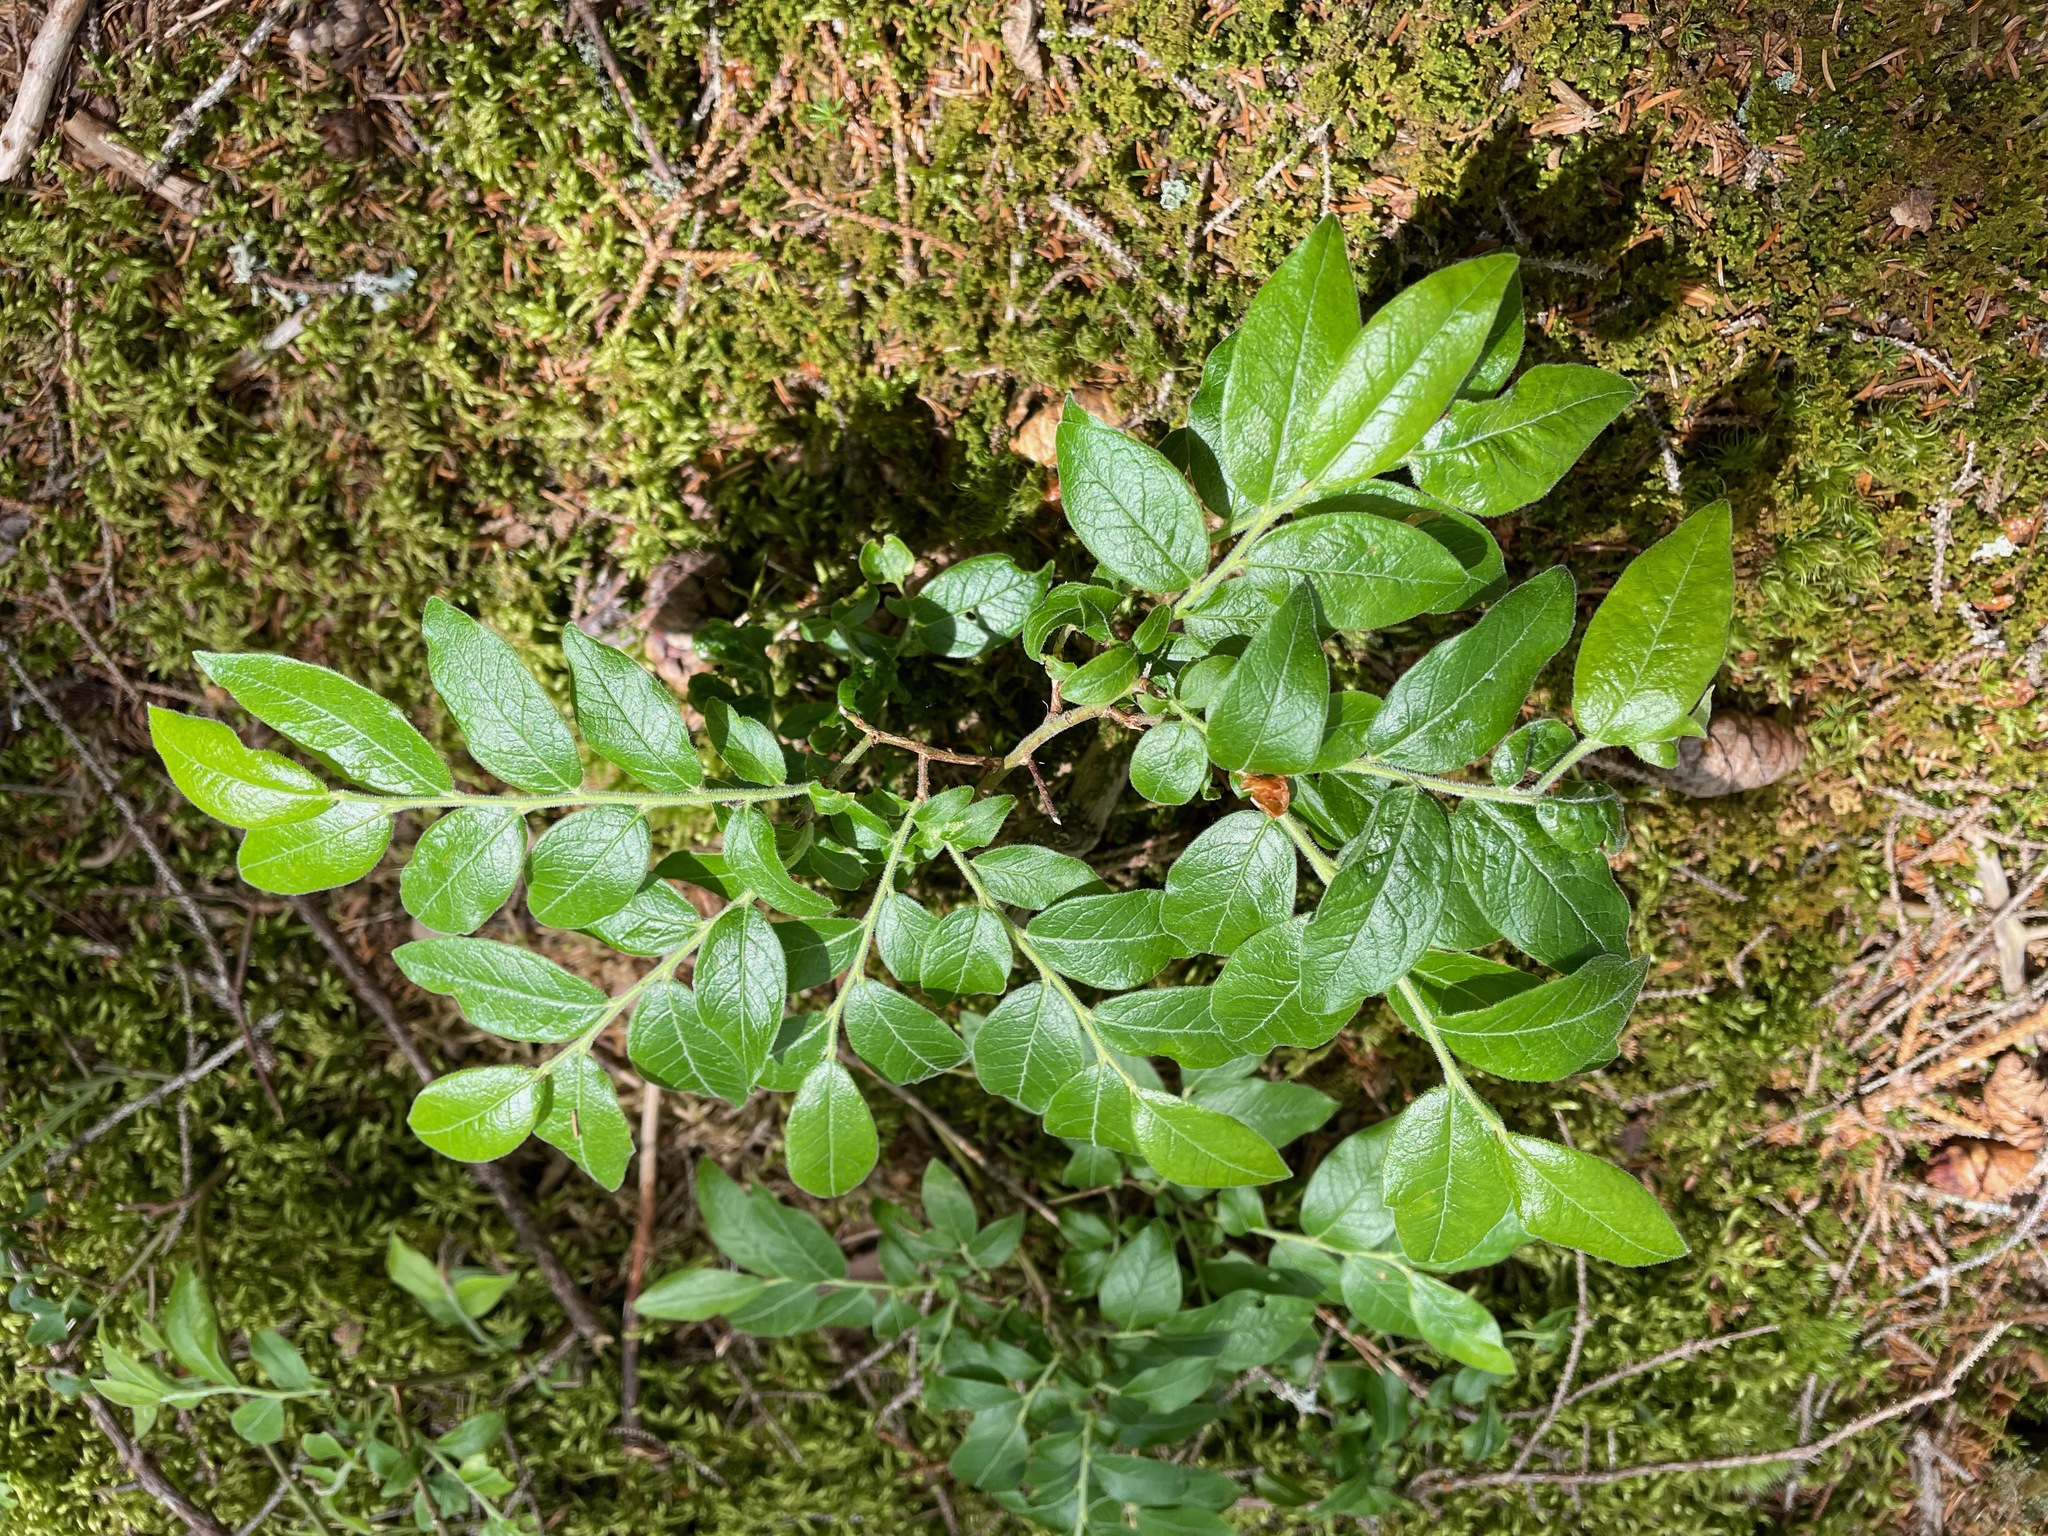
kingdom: Plantae
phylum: Tracheophyta
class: Magnoliopsida
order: Ericales
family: Ericaceae
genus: Vaccinium
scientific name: Vaccinium myrtilloides
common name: Canada blueberry
